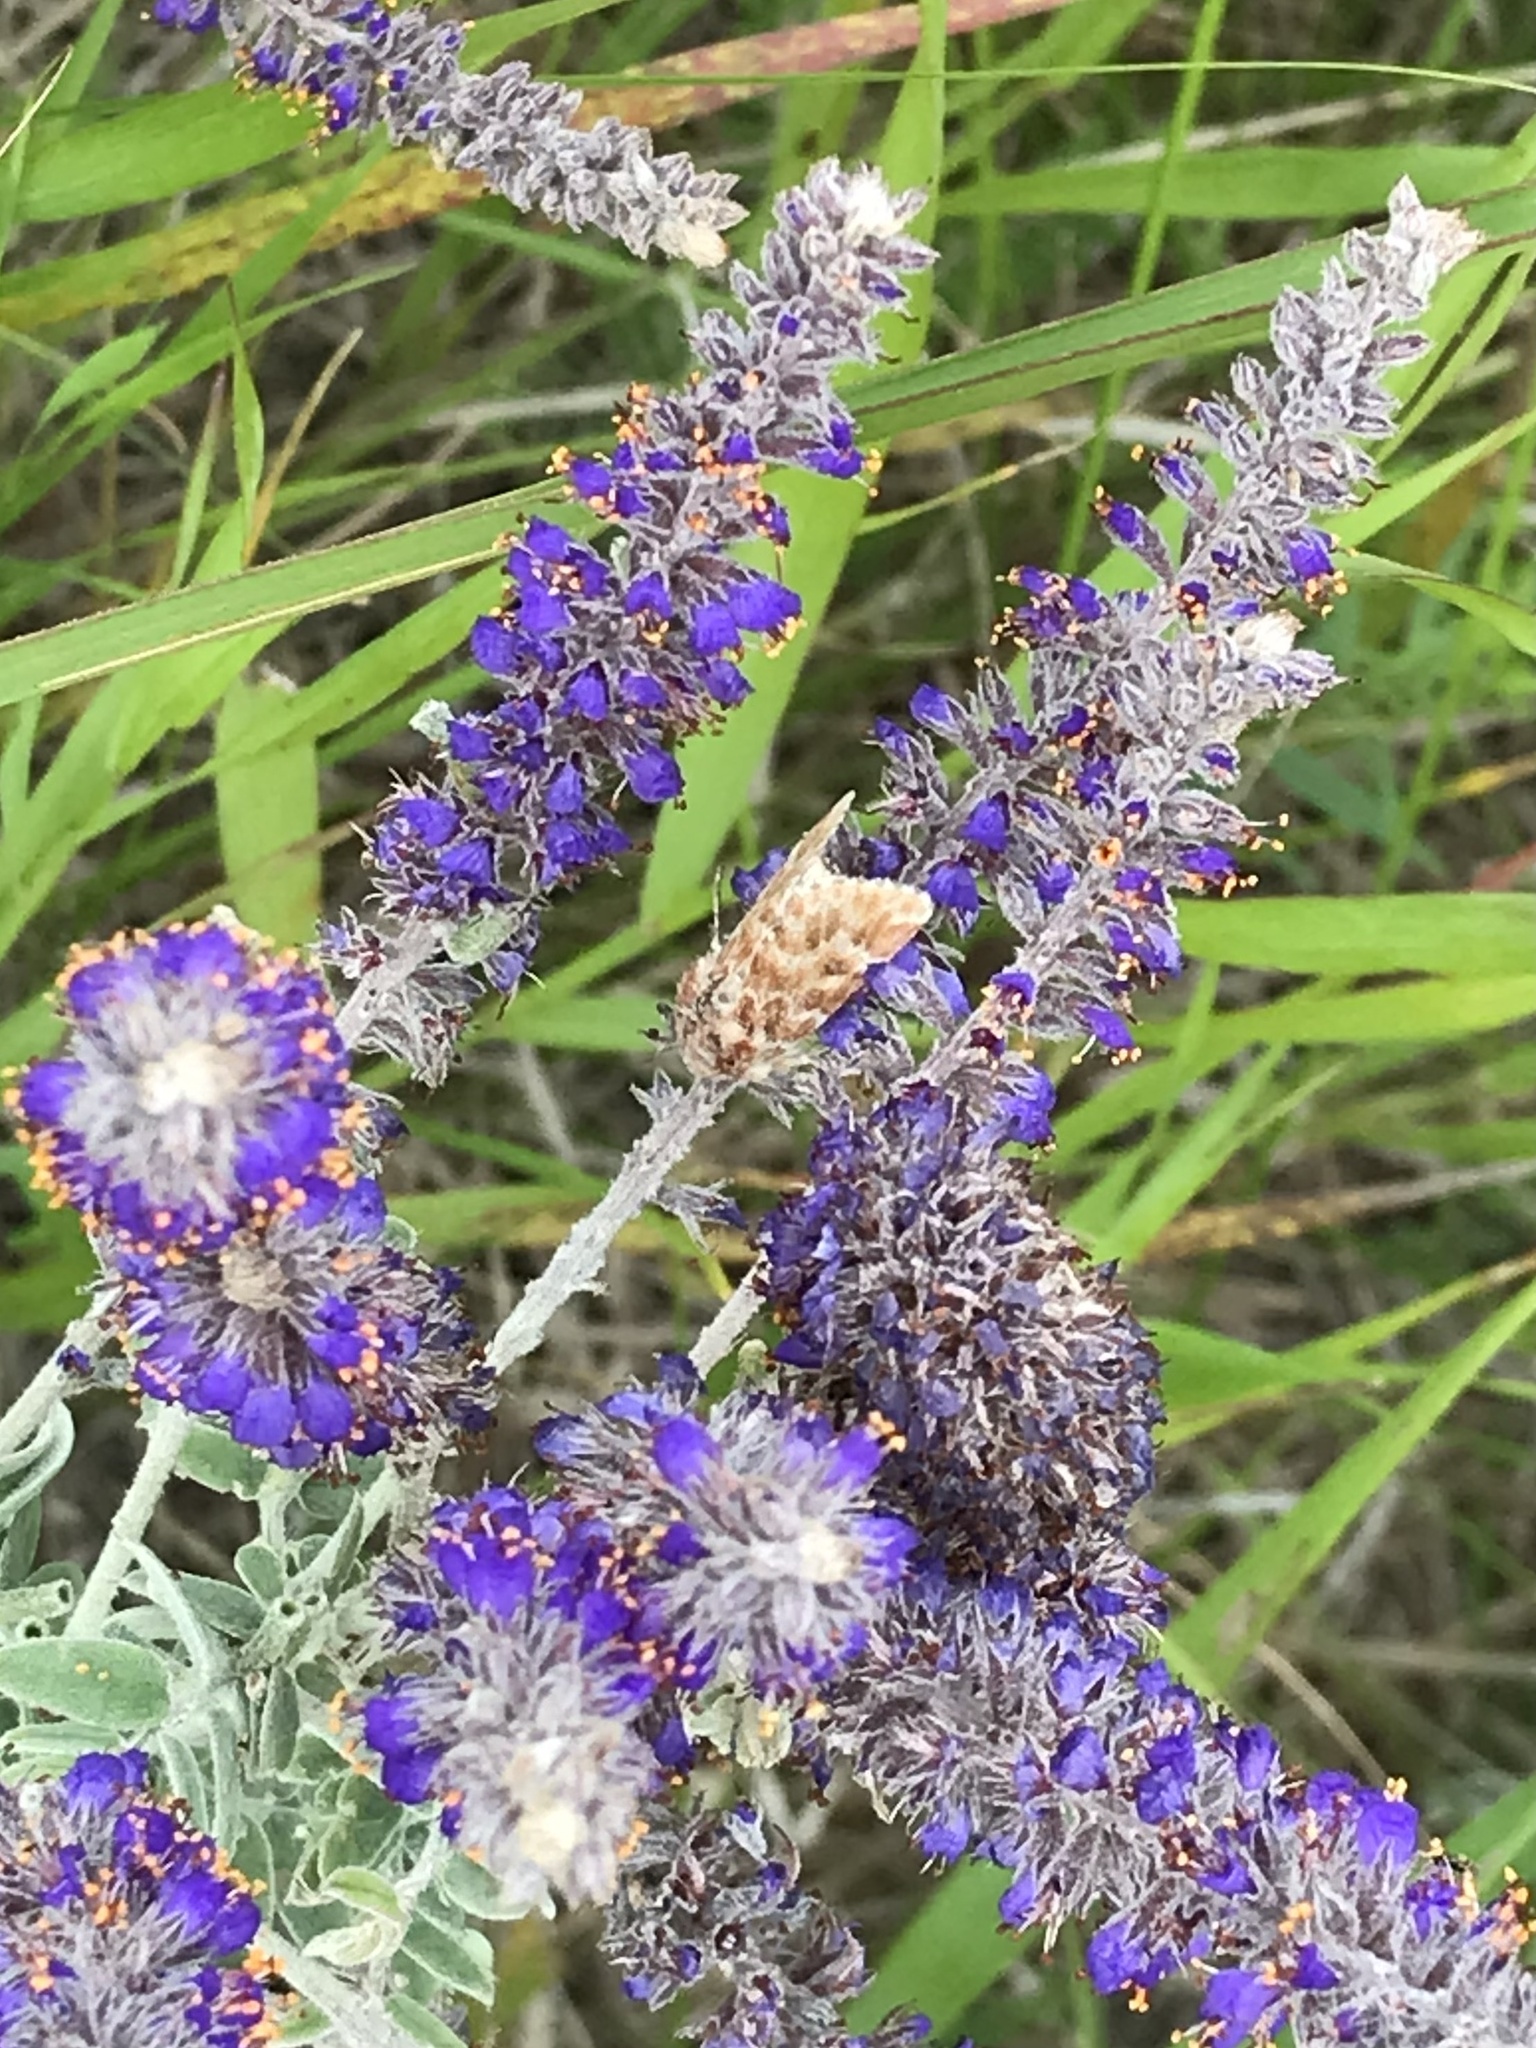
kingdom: Animalia
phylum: Arthropoda
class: Insecta
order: Lepidoptera
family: Noctuidae
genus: Schinia
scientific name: Schinia lucens
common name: Leadplant flower moth
